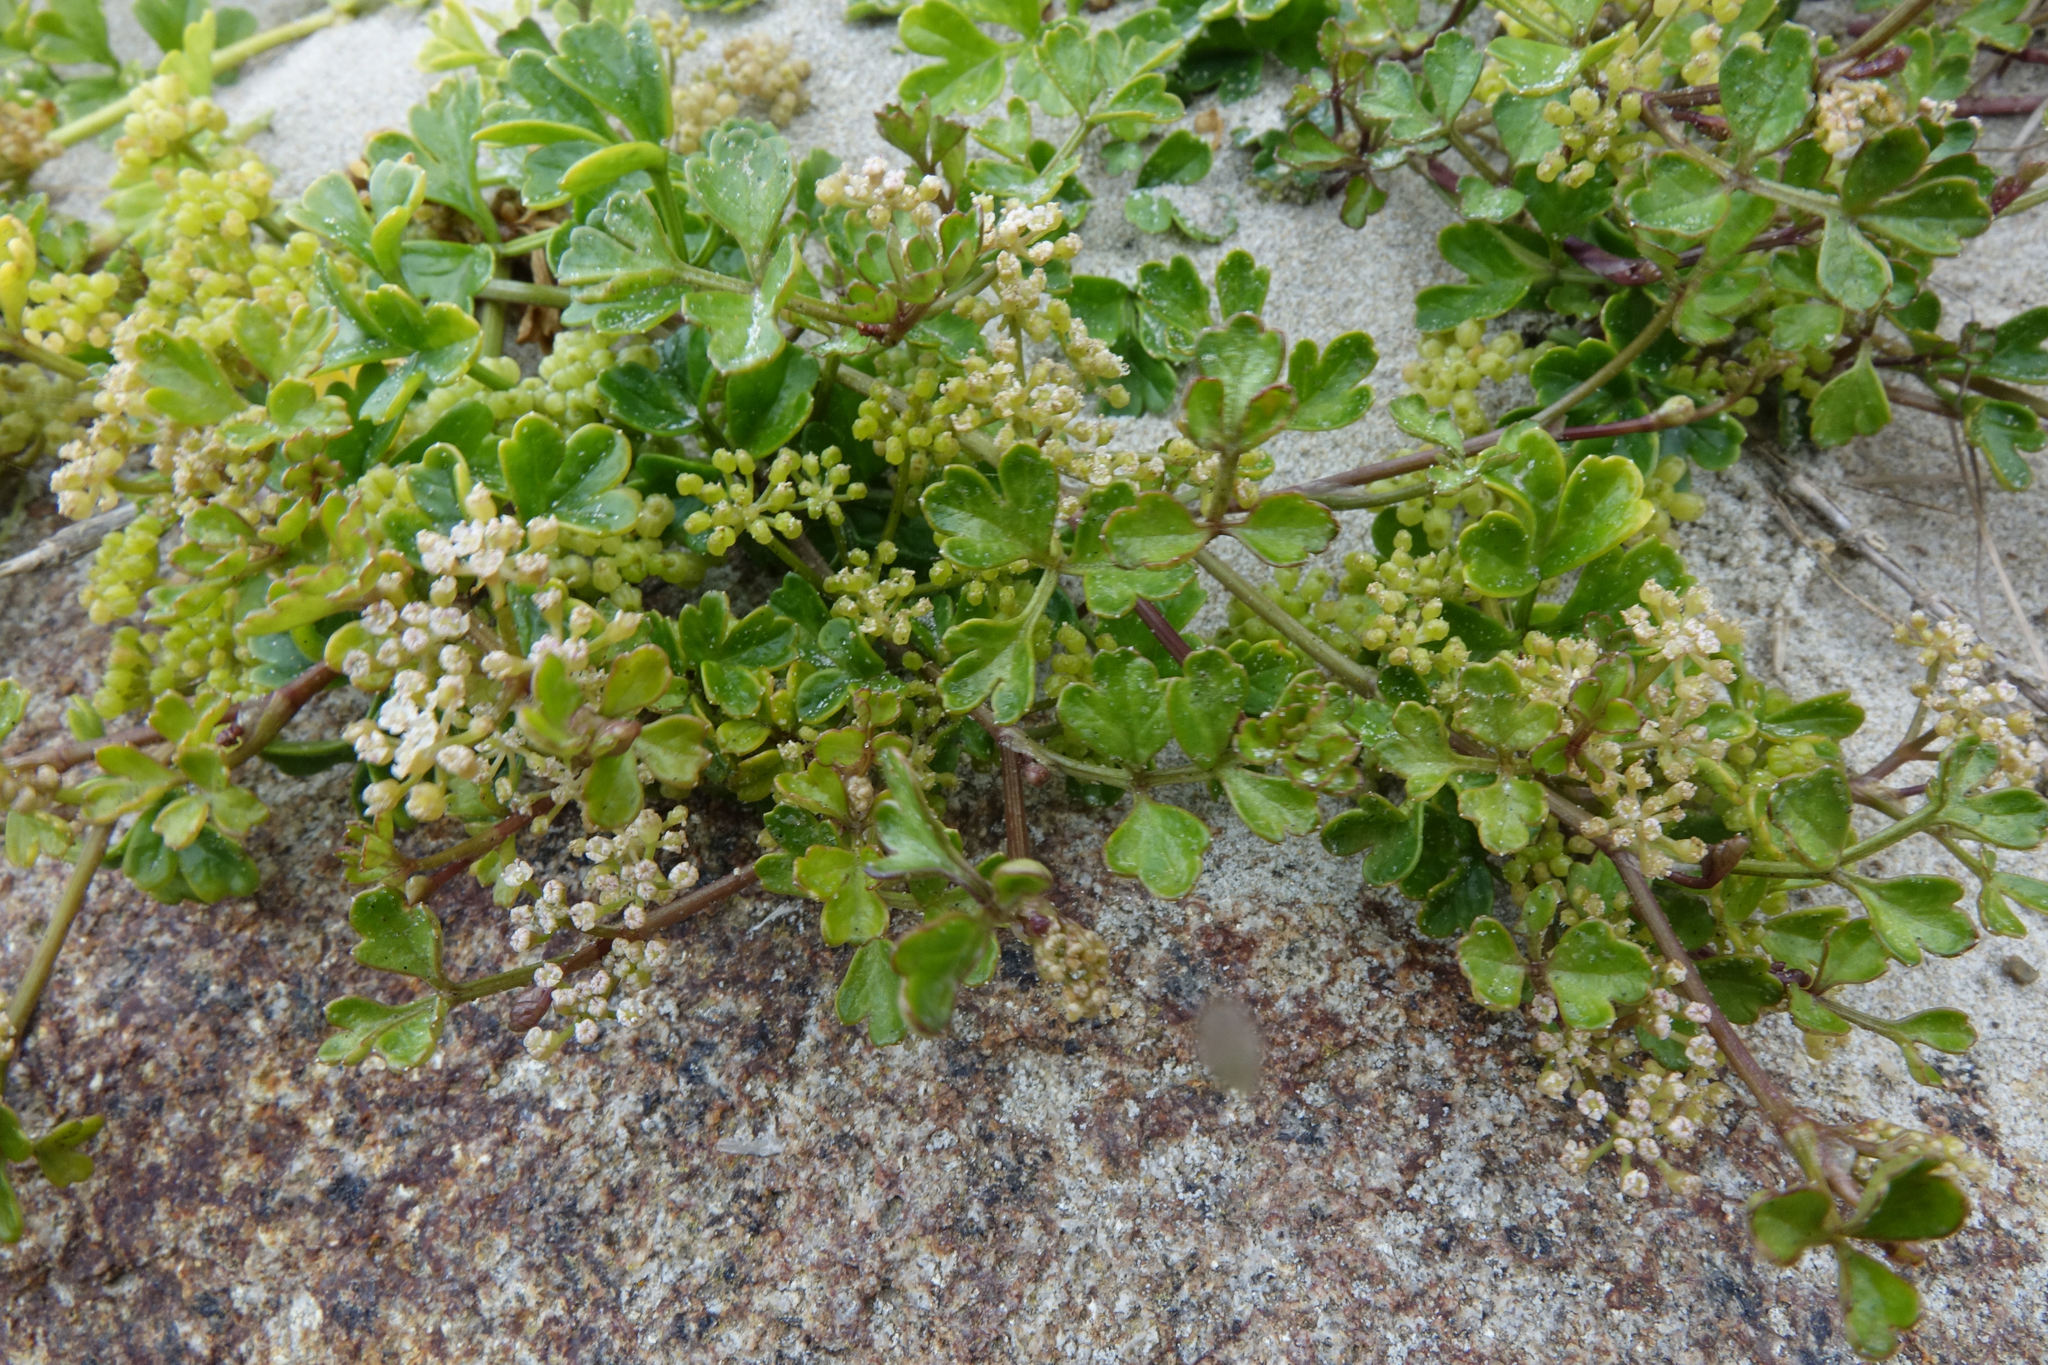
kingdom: Plantae
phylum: Tracheophyta
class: Magnoliopsida
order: Apiales
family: Apiaceae
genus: Apium
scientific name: Apium prostratum
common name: Prostrate marshwort
